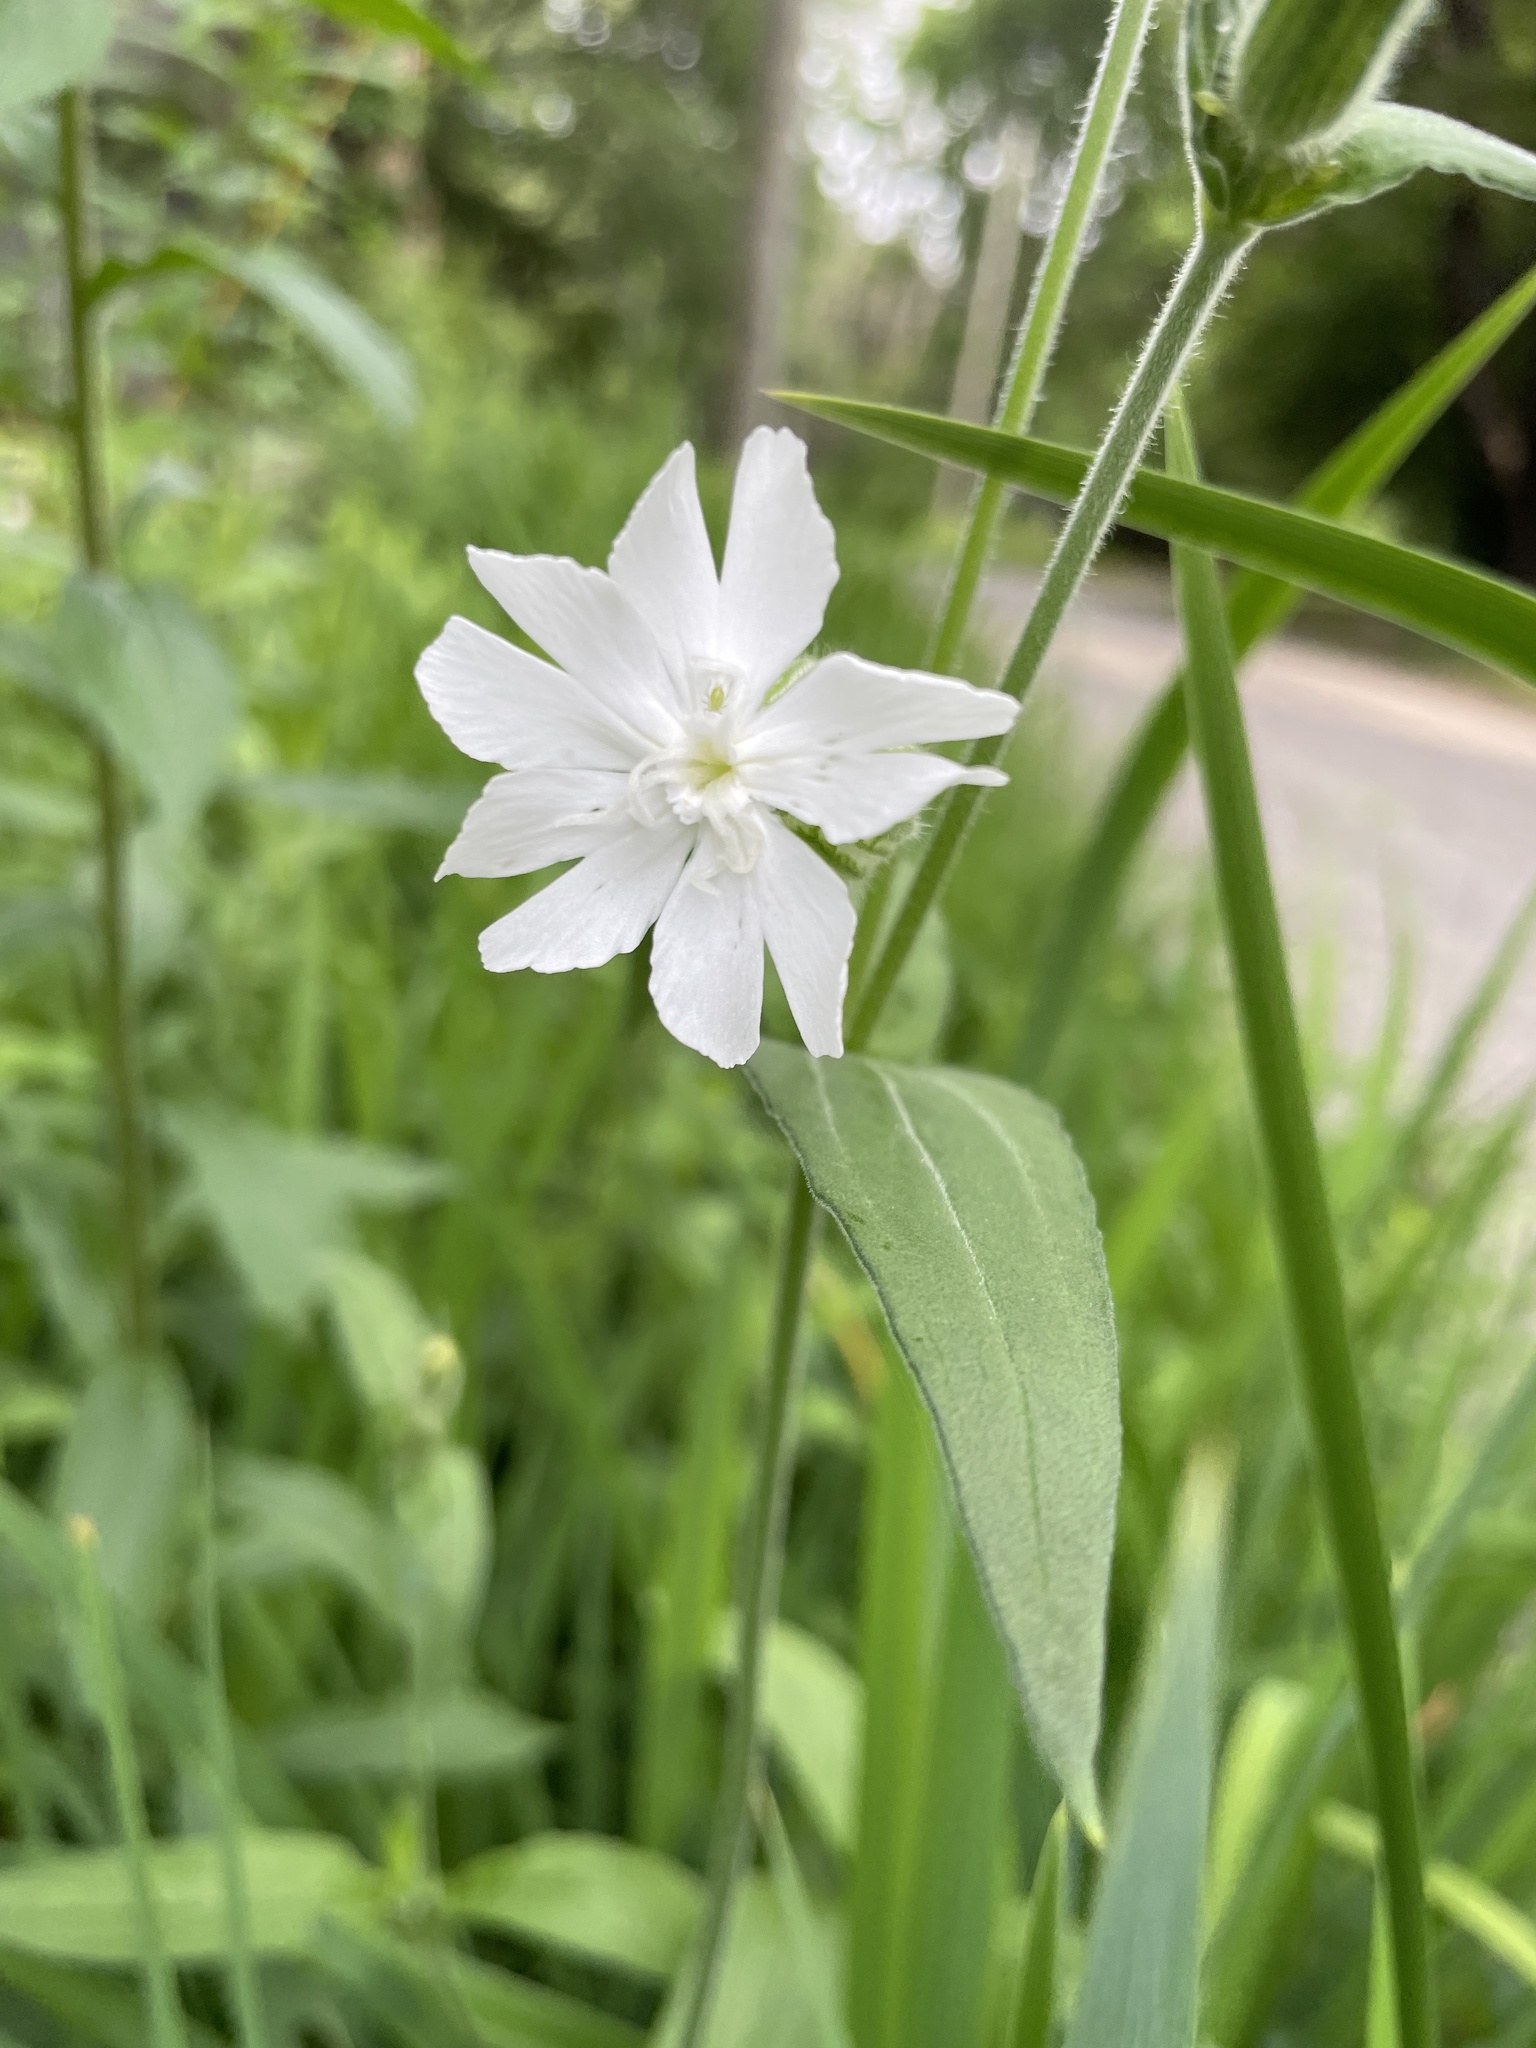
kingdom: Plantae
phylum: Tracheophyta
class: Magnoliopsida
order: Caryophyllales
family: Caryophyllaceae
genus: Silene
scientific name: Silene latifolia
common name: White campion
